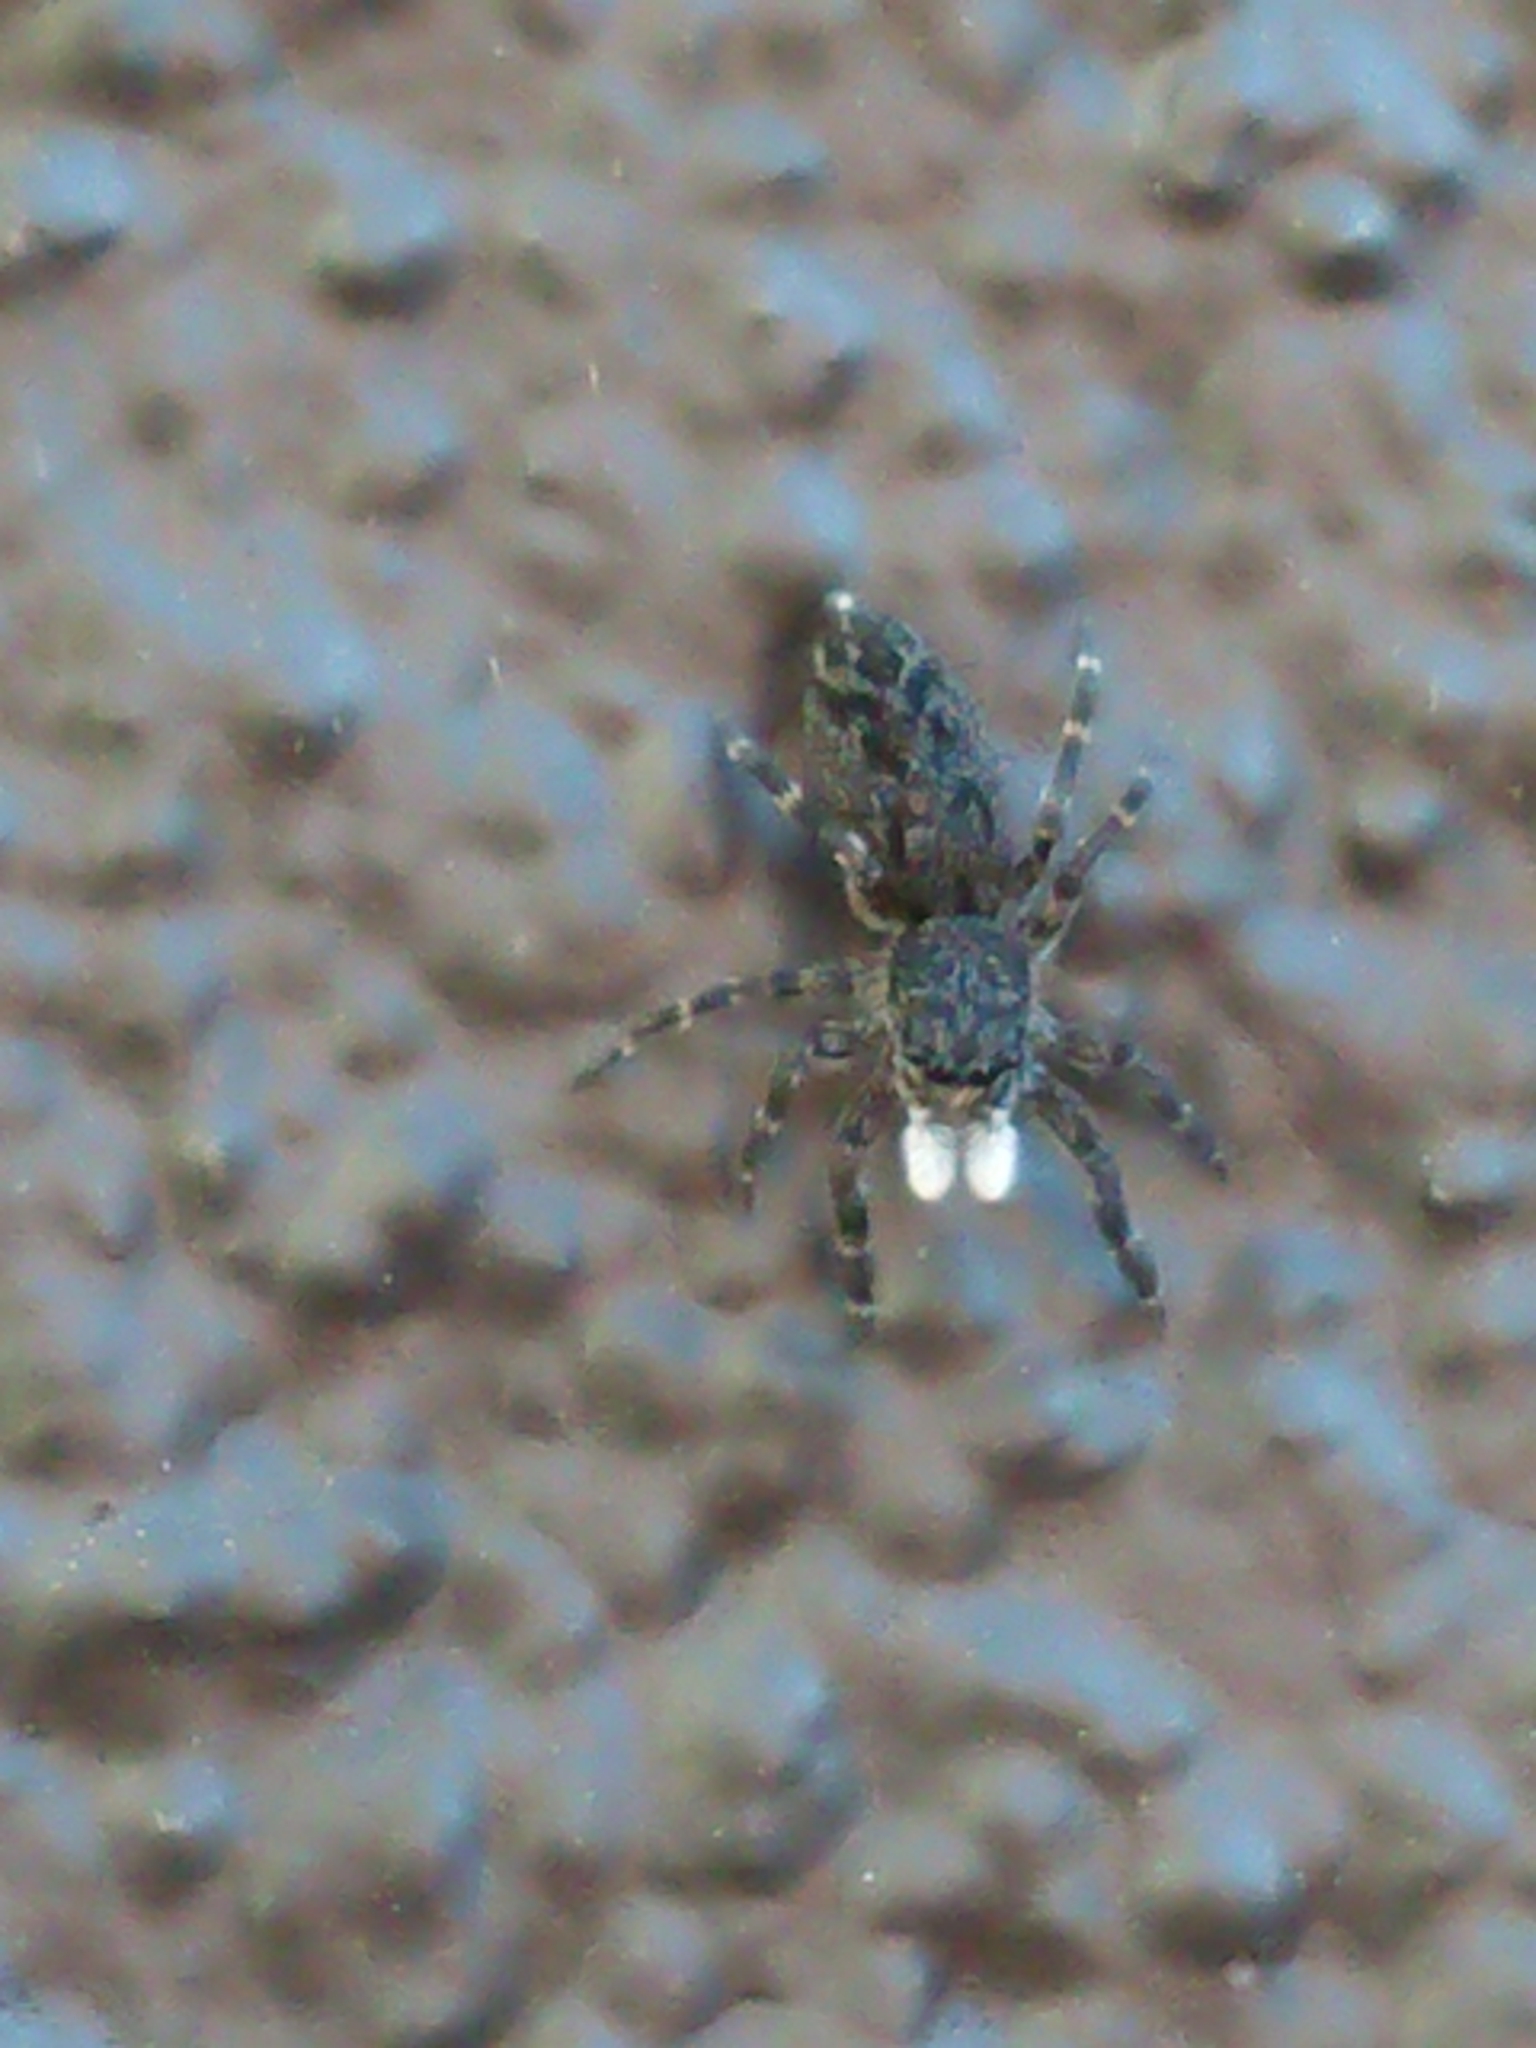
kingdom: Animalia
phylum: Arthropoda
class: Arachnida
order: Araneae
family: Salticidae
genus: Adoxotoma
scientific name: Adoxotoma forsteri
